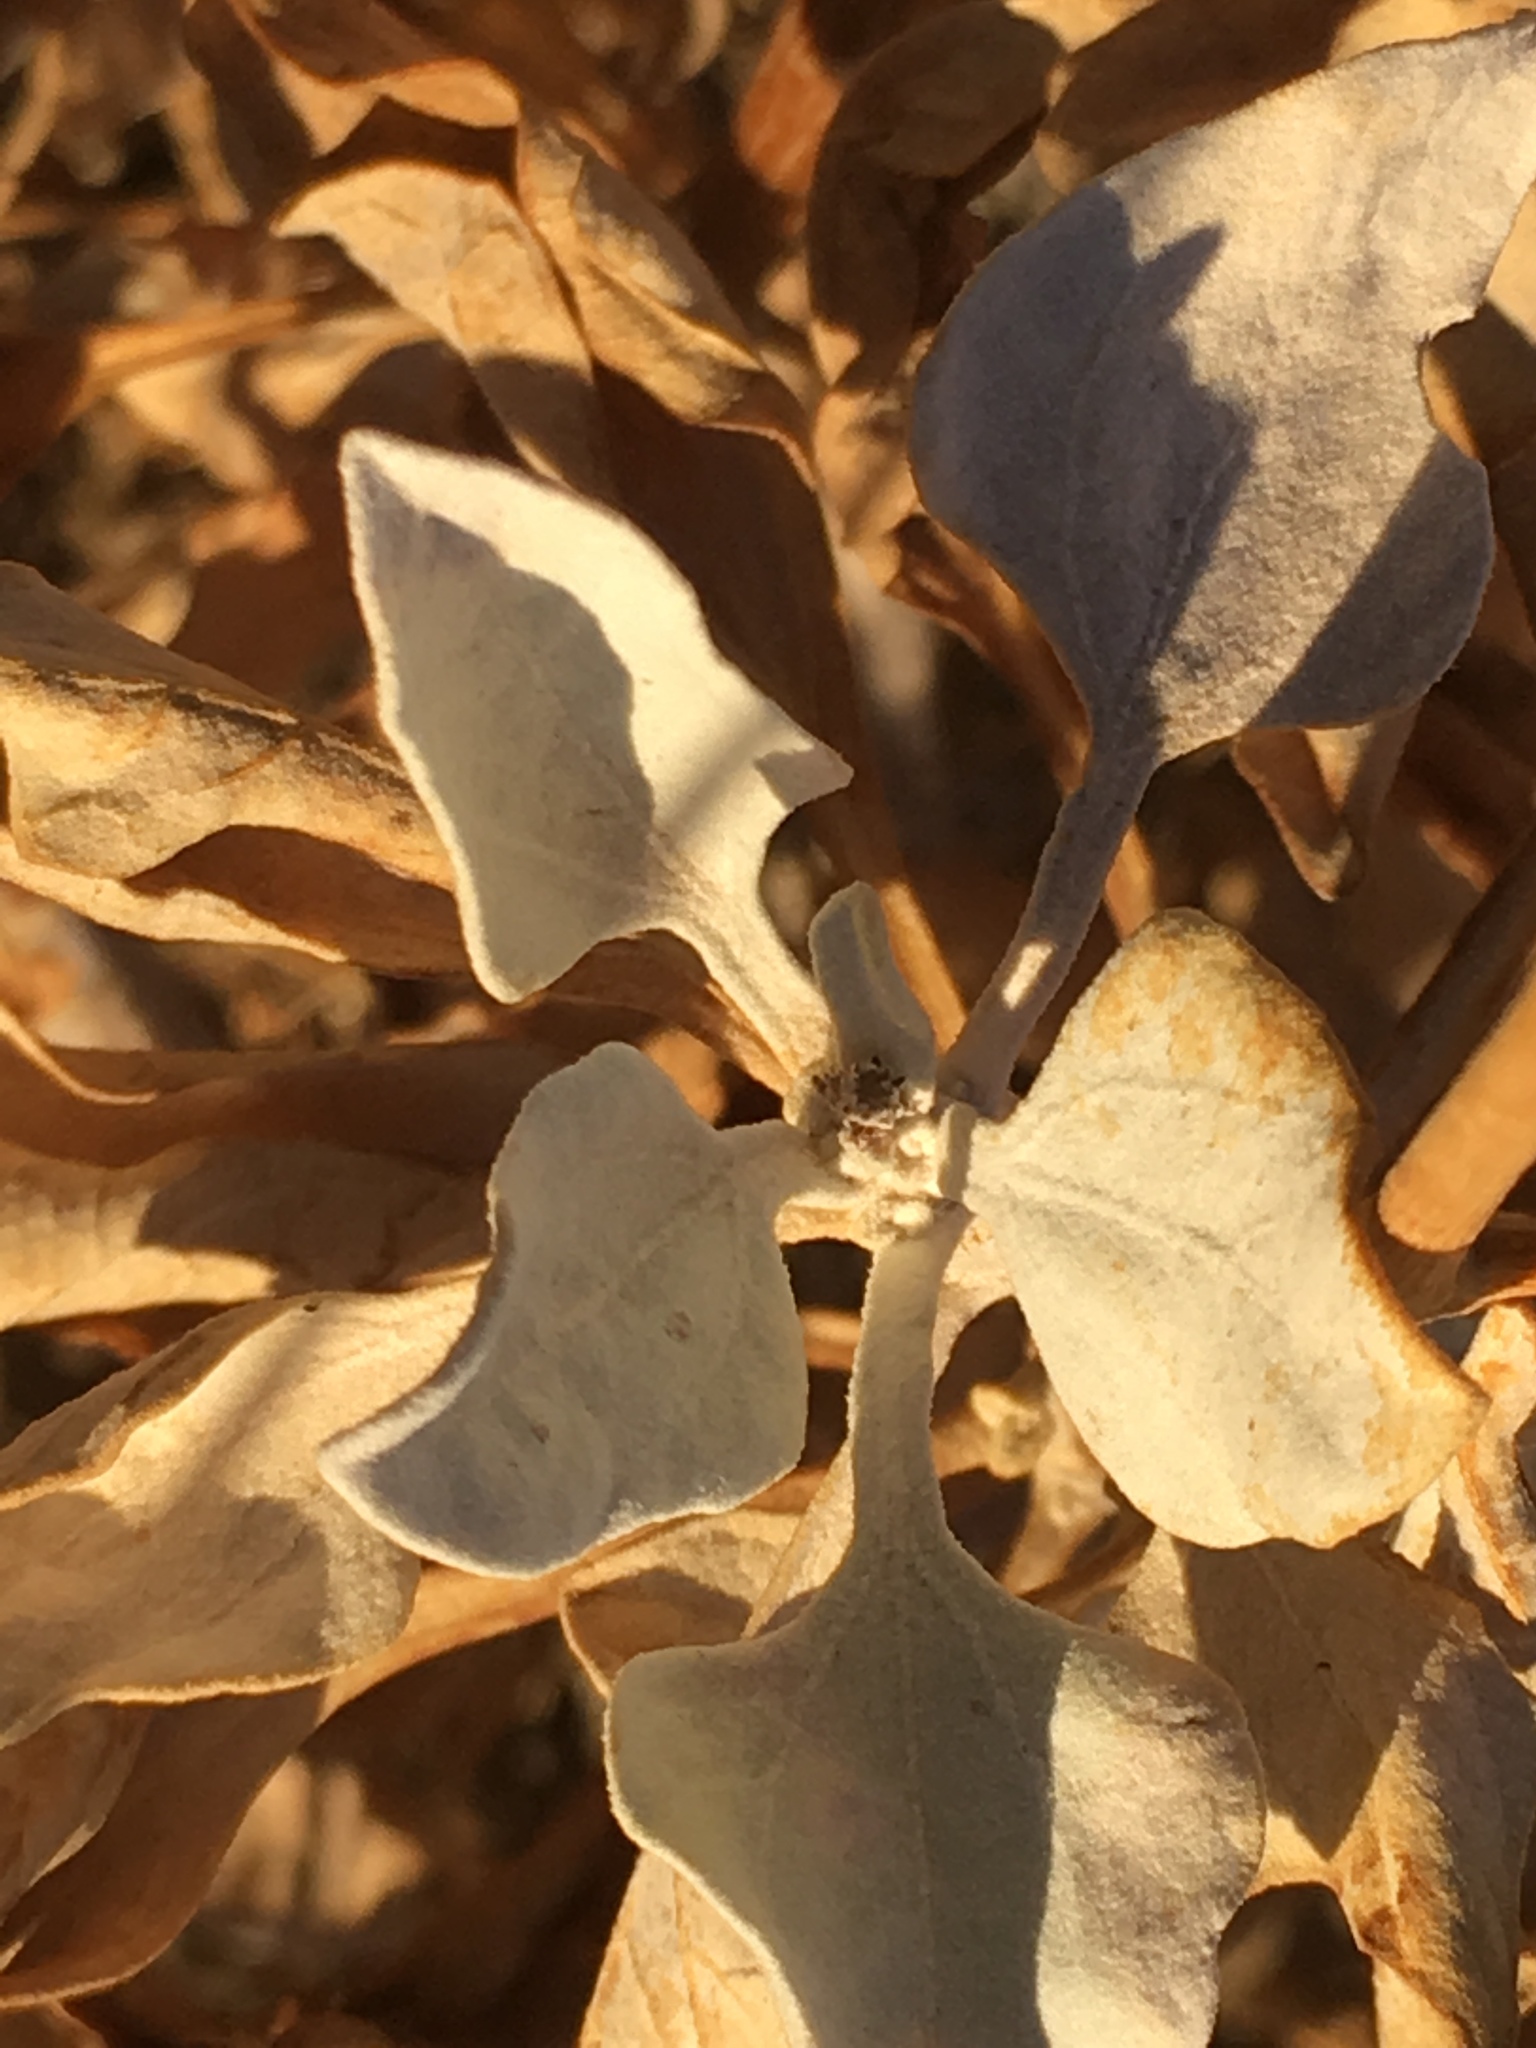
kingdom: Plantae
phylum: Tracheophyta
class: Magnoliopsida
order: Asterales
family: Asteraceae
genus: Encelia
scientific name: Encelia farinosa
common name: Brittlebush
